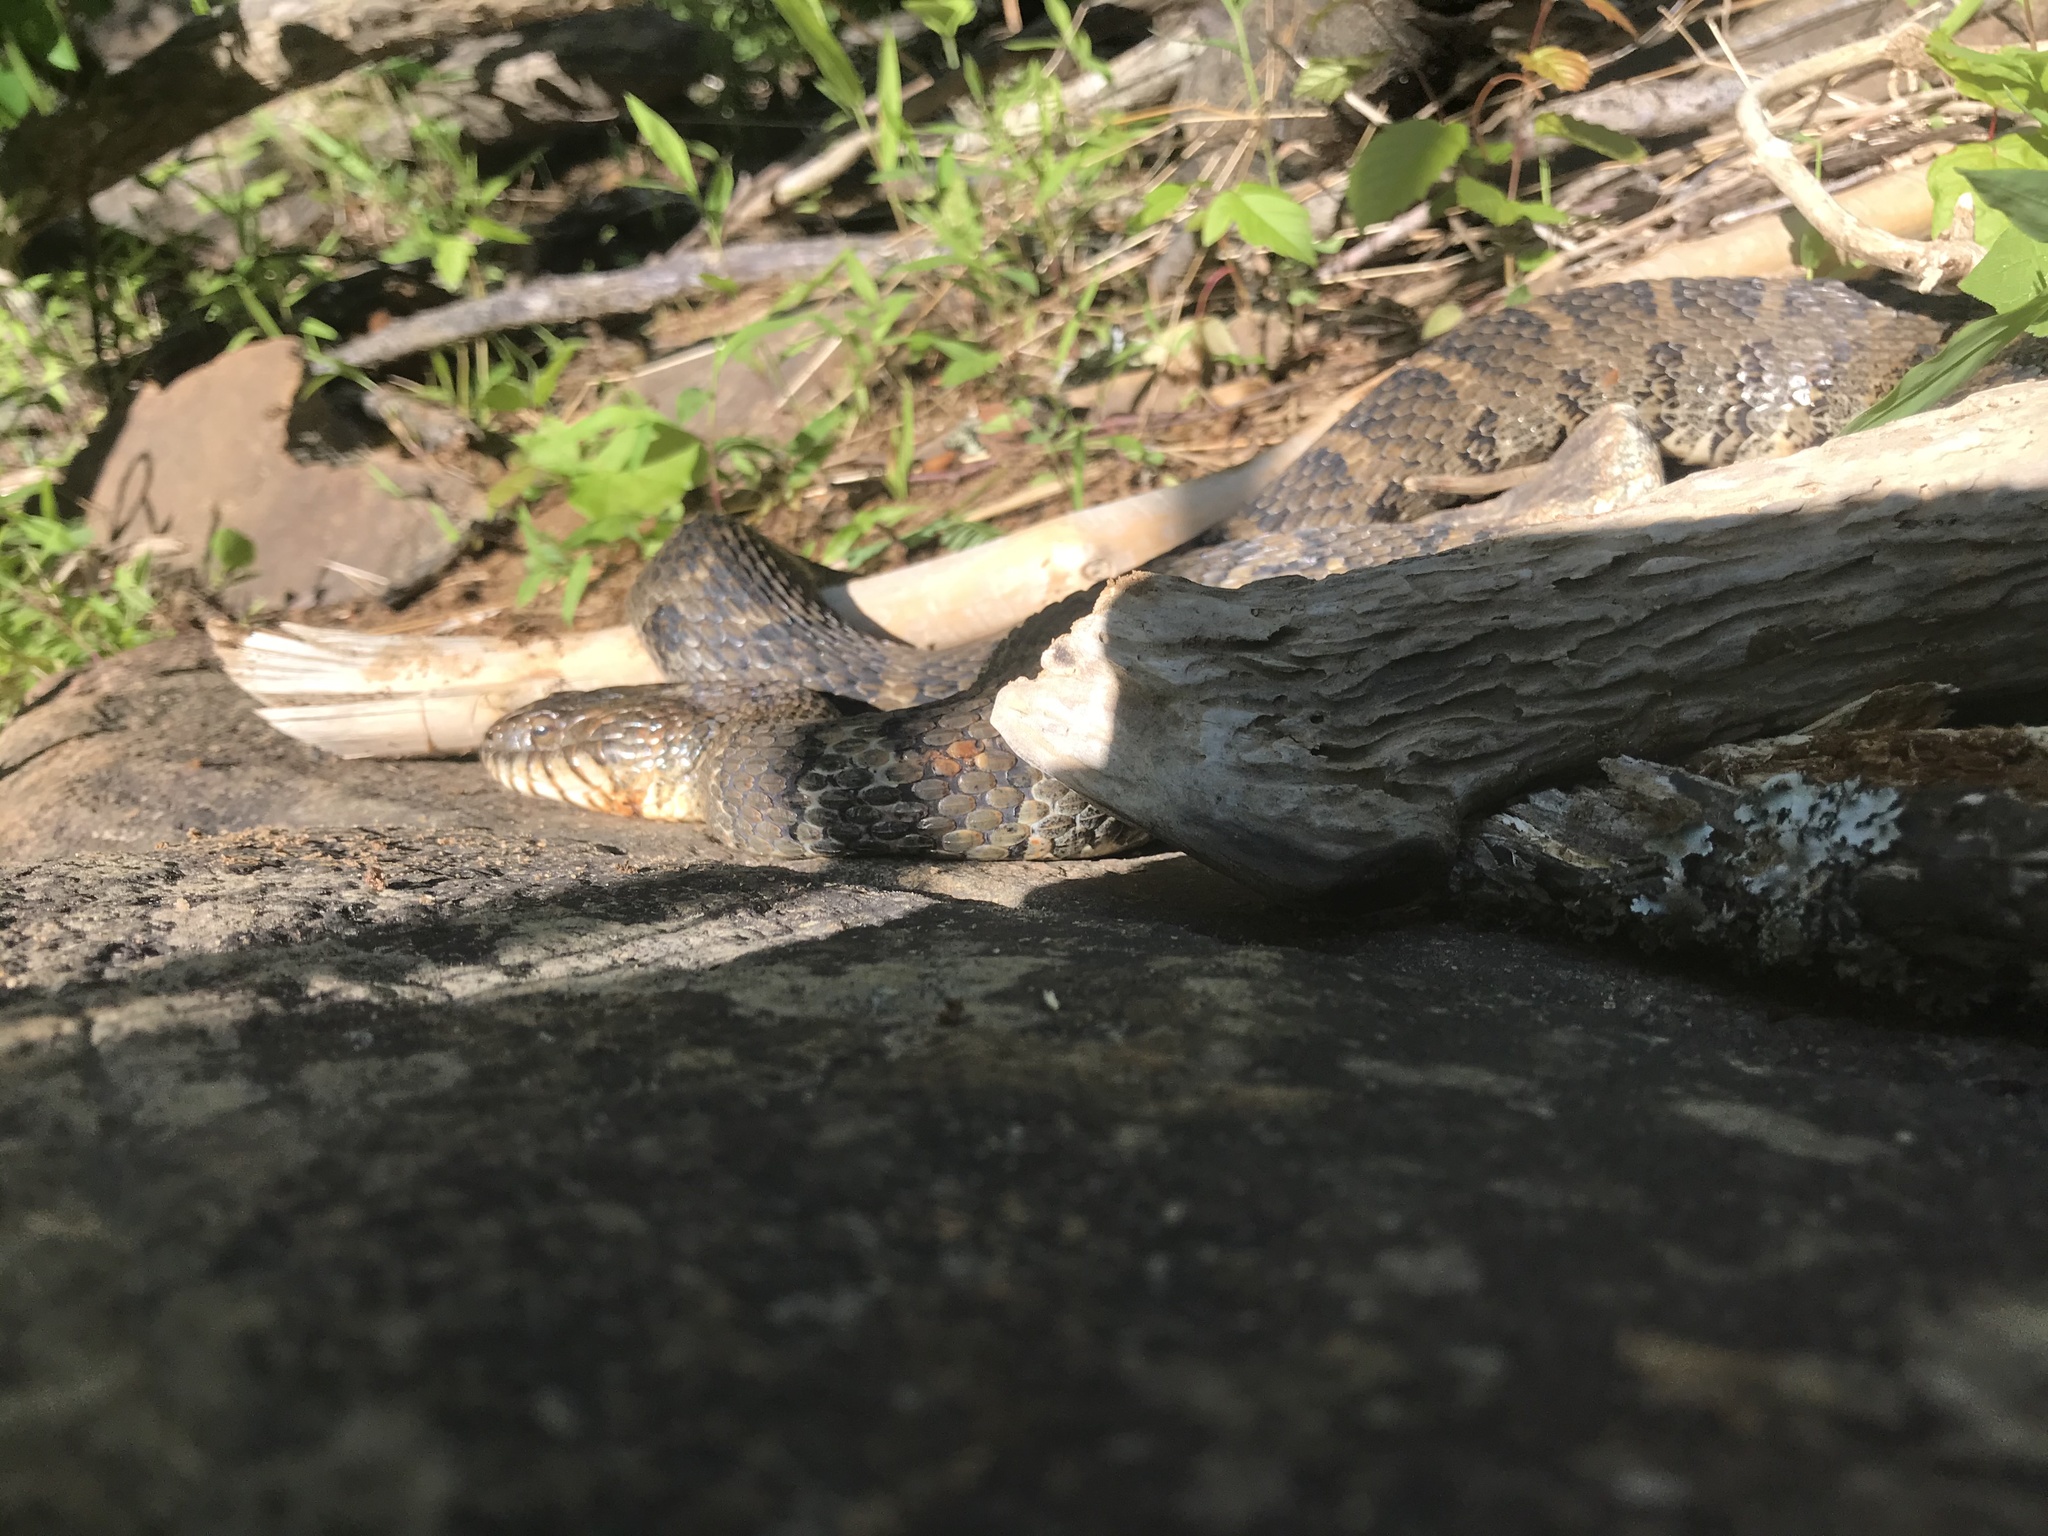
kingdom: Animalia
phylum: Chordata
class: Squamata
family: Colubridae
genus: Nerodia
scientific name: Nerodia sipedon
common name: Northern water snake
